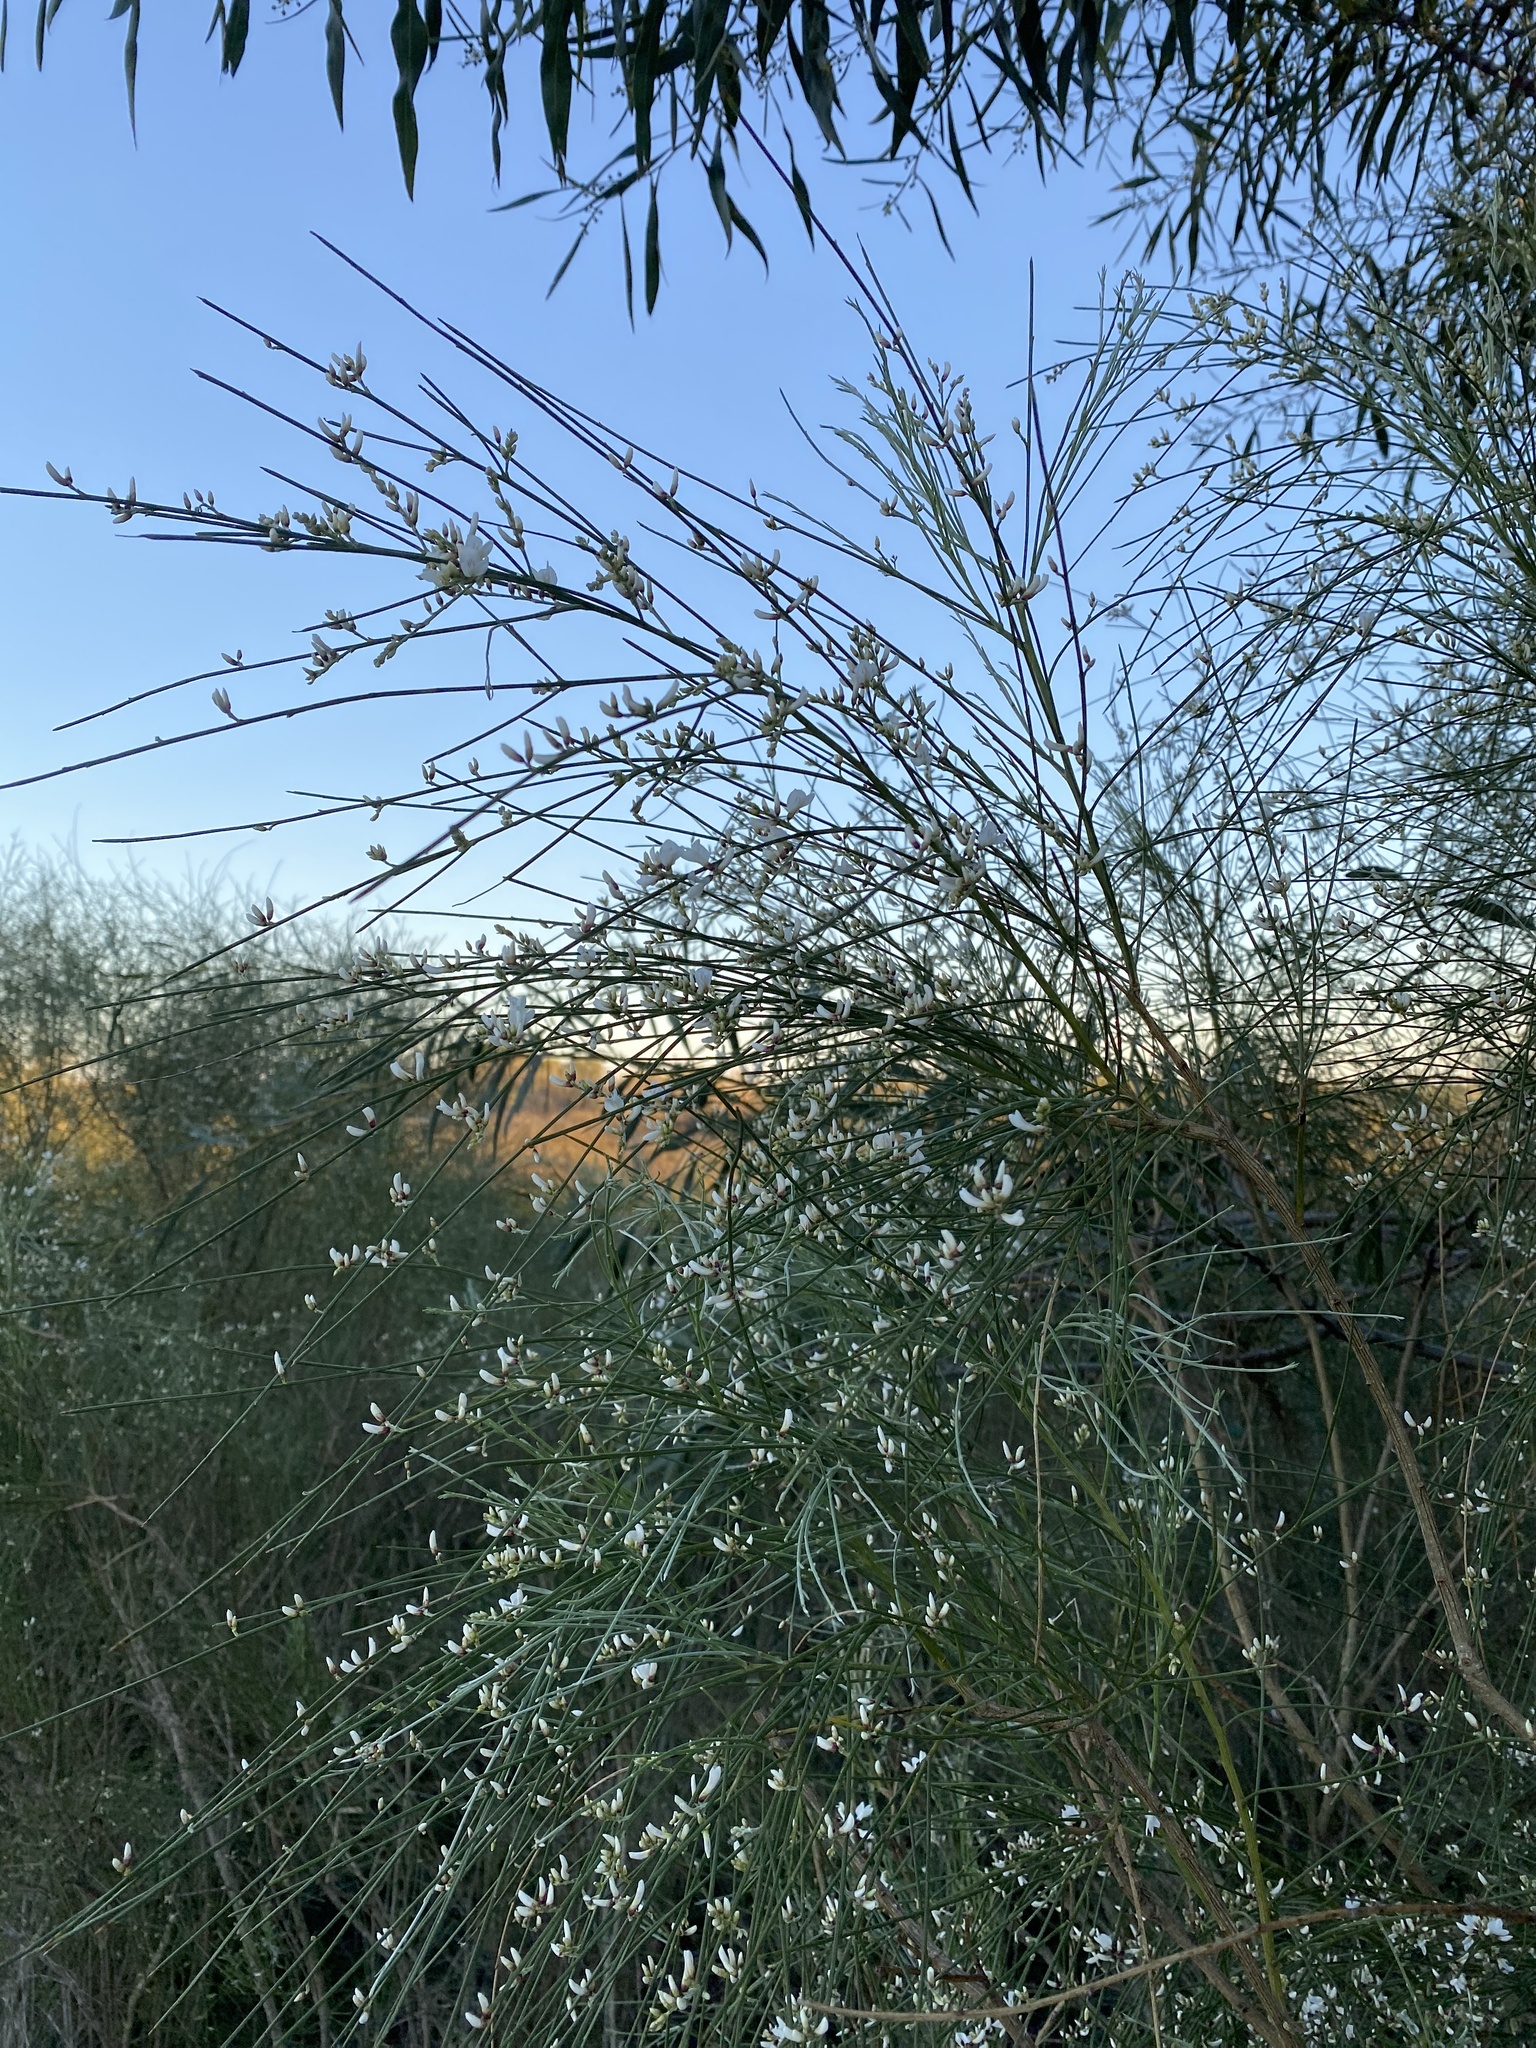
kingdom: Plantae
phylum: Tracheophyta
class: Magnoliopsida
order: Fabales
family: Fabaceae
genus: Retama
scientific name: Retama monosperma
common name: Bridal broom
